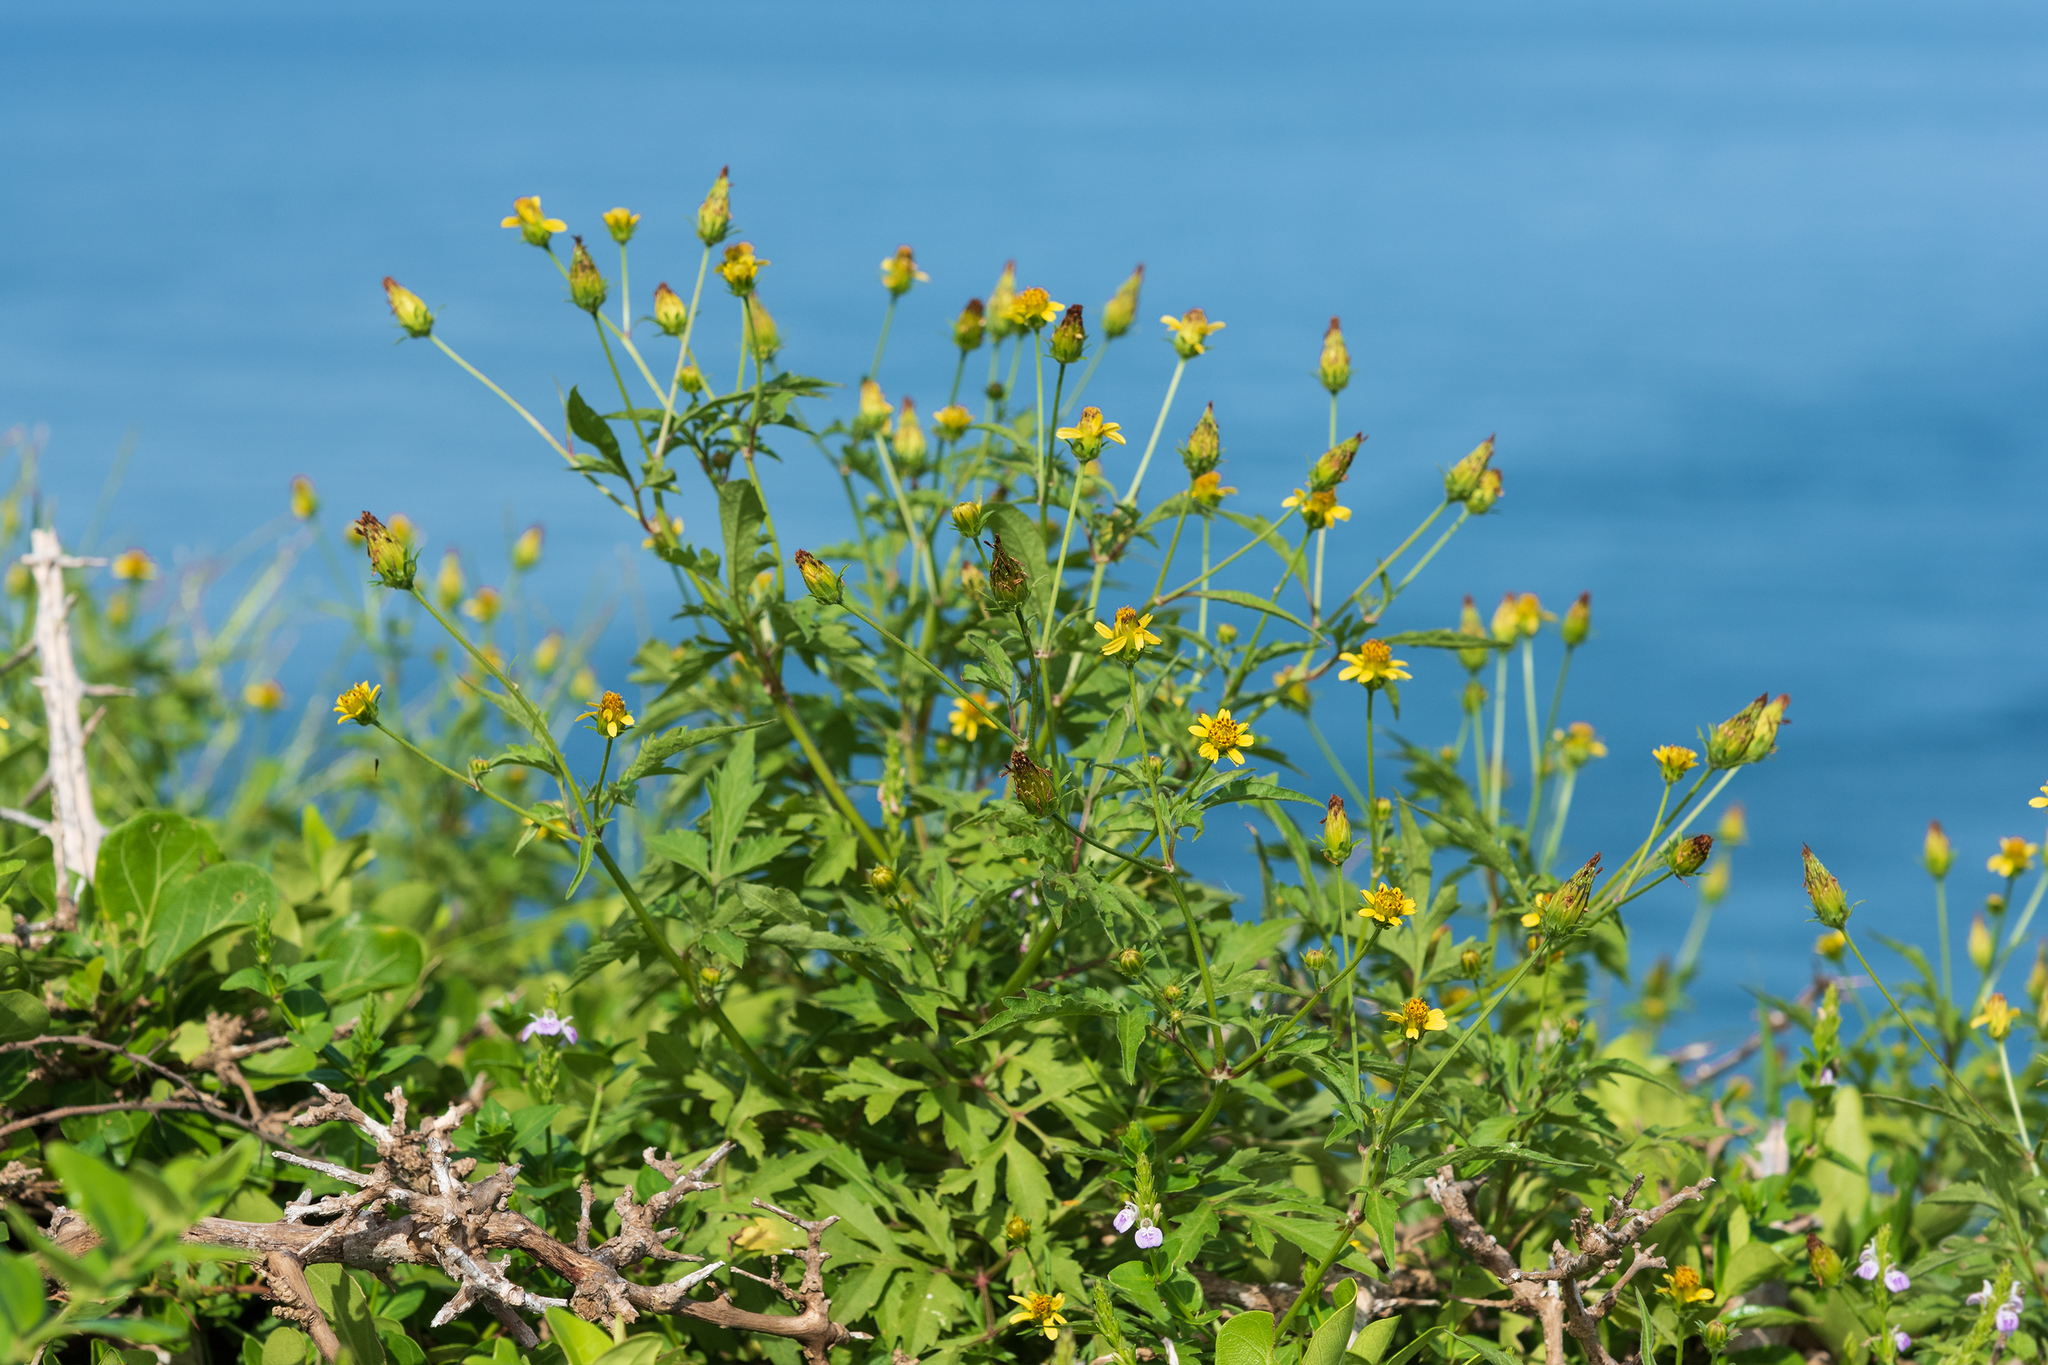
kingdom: Plantae
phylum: Tracheophyta
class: Magnoliopsida
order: Asterales
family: Asteraceae
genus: Bidens
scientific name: Bidens bipinnata
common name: Spanish-needles
